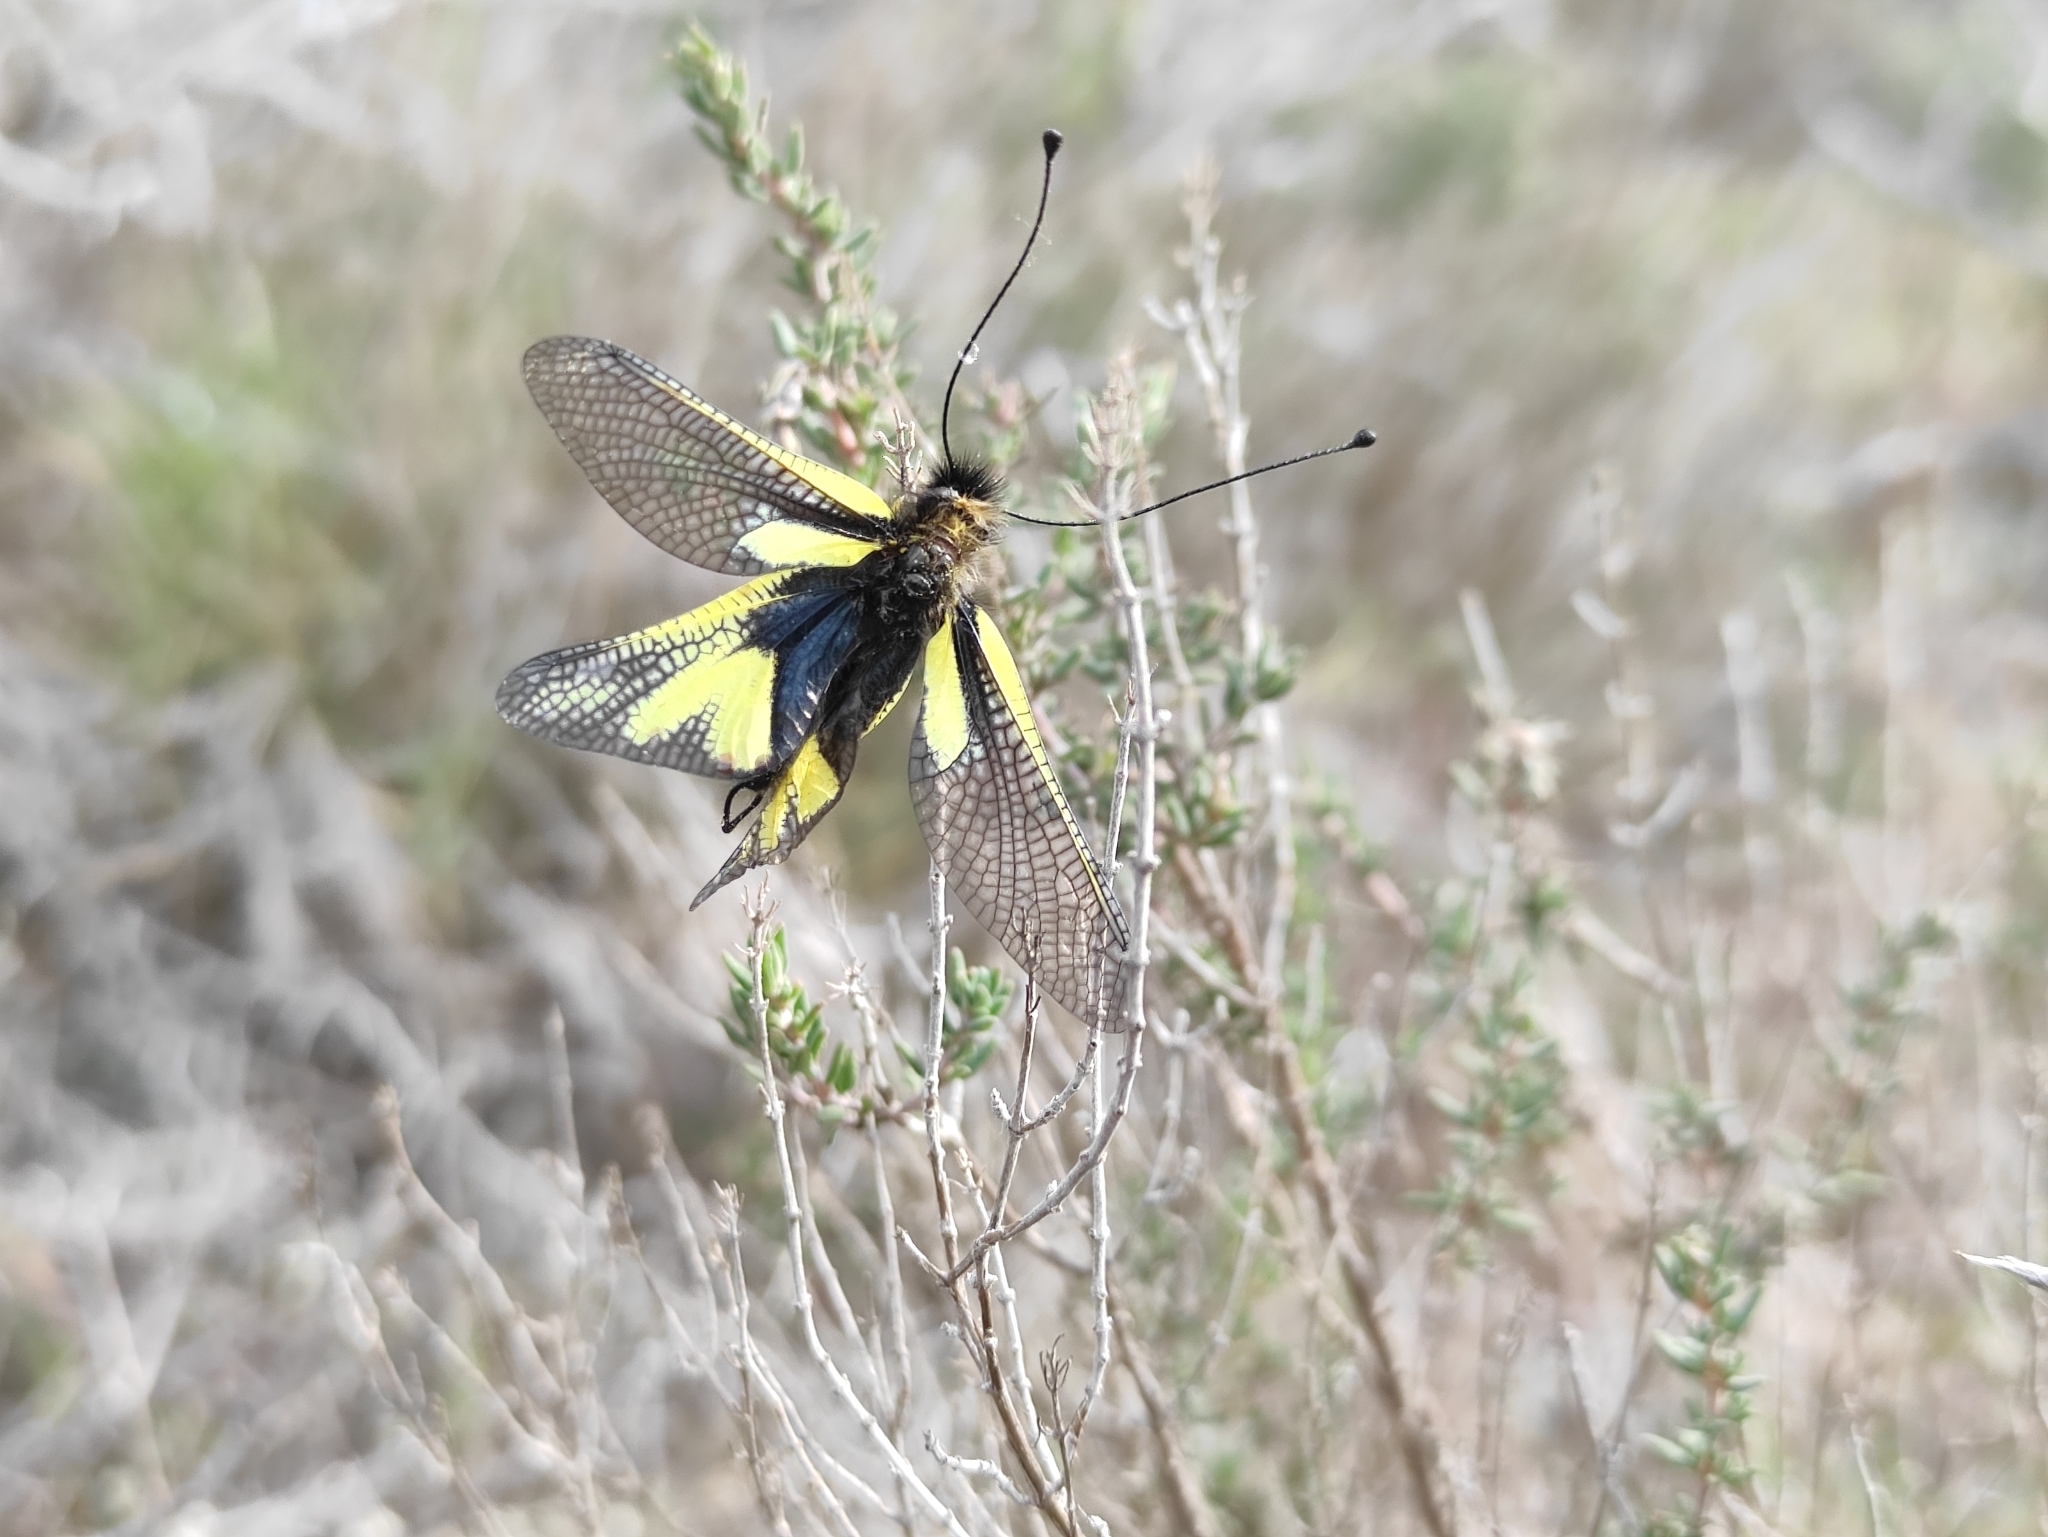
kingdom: Animalia
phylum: Arthropoda
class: Insecta
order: Neuroptera
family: Ascalaphidae
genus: Libelloides
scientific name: Libelloides coccajus
